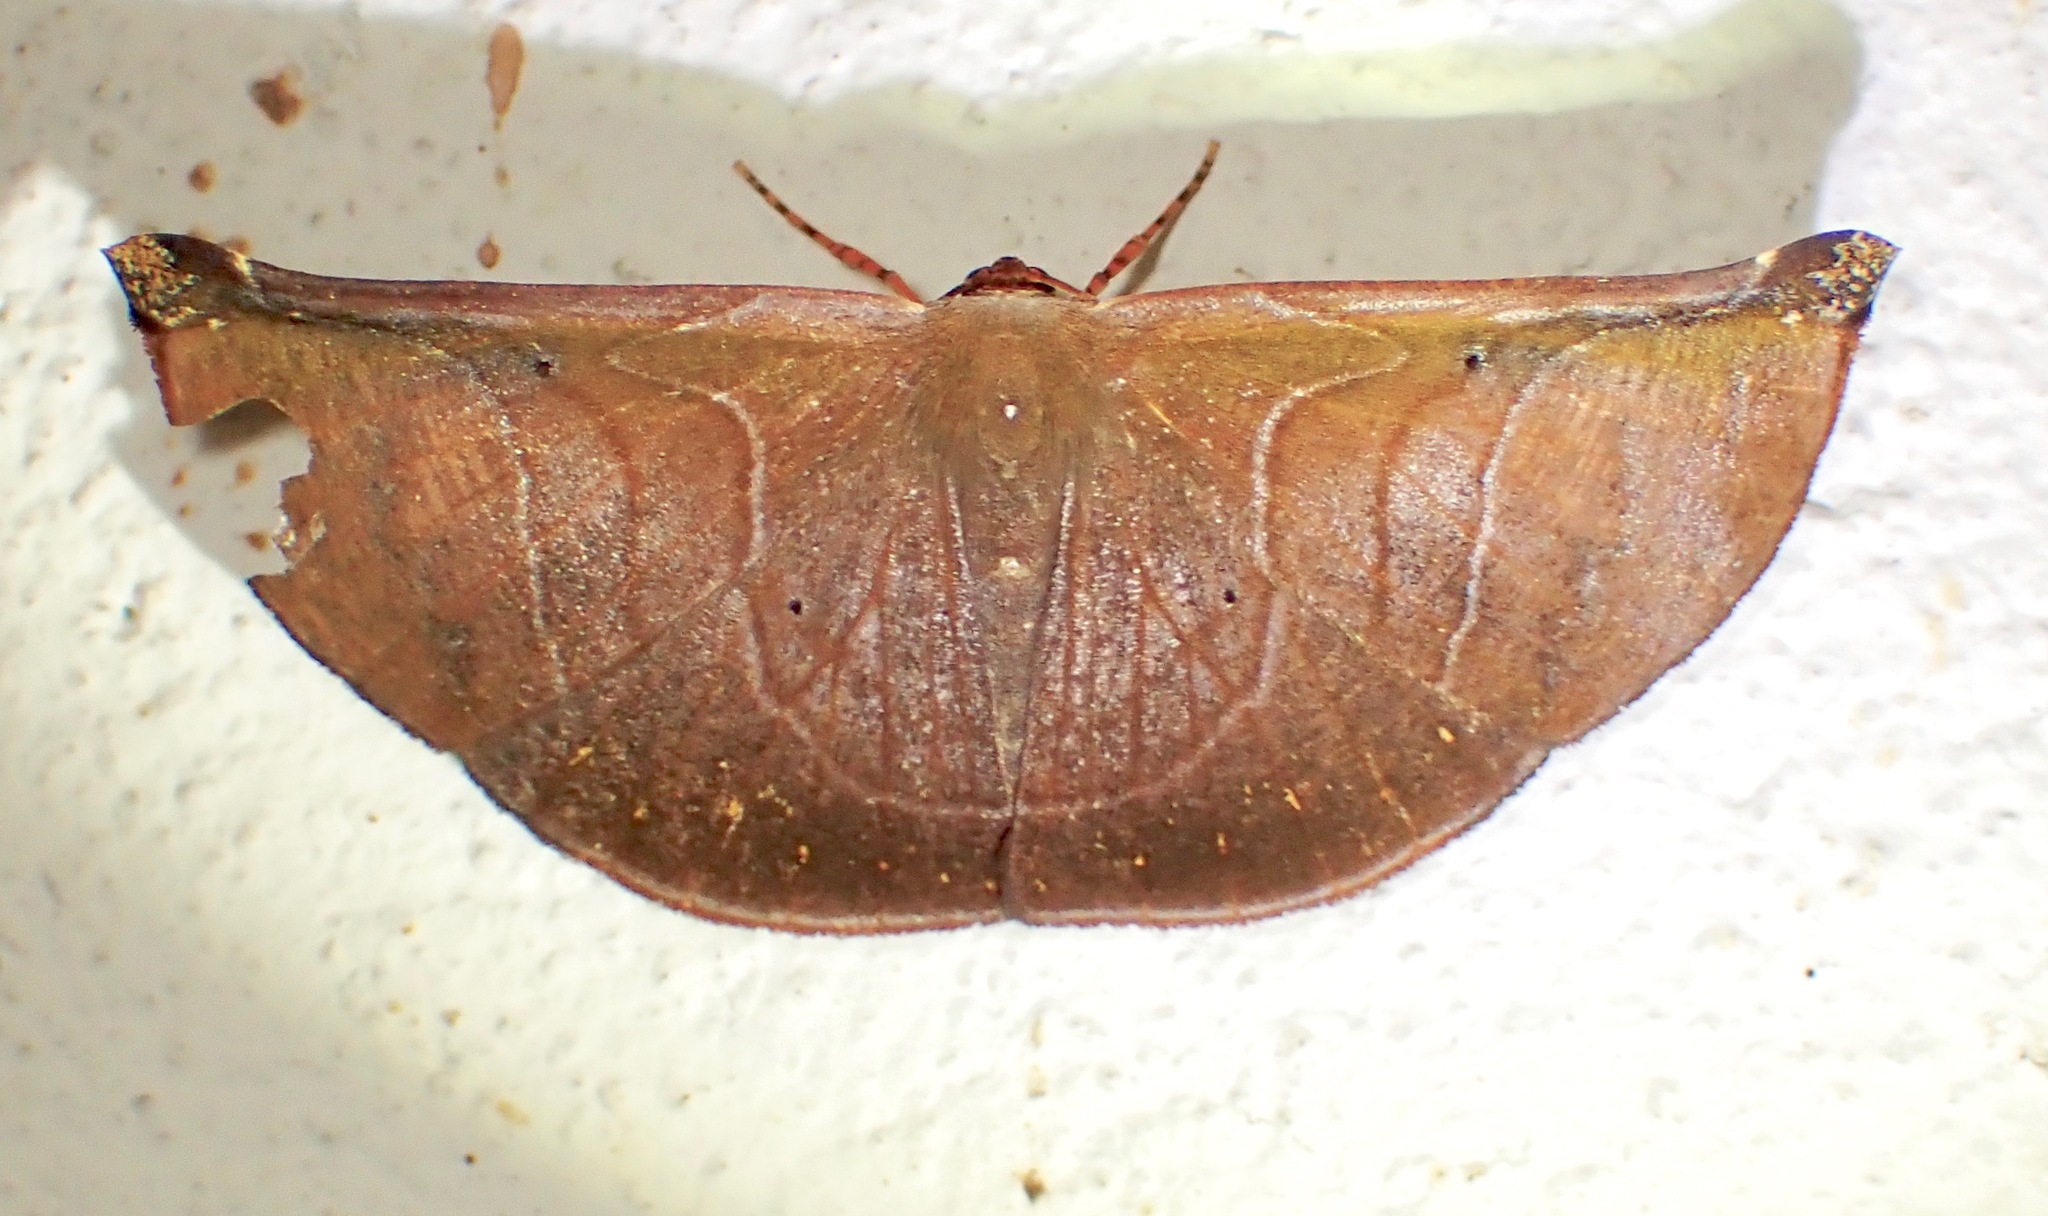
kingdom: Animalia
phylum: Arthropoda
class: Insecta
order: Lepidoptera
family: Geometridae
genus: Cyphoedma
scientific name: Cyphoedma transvolutata
